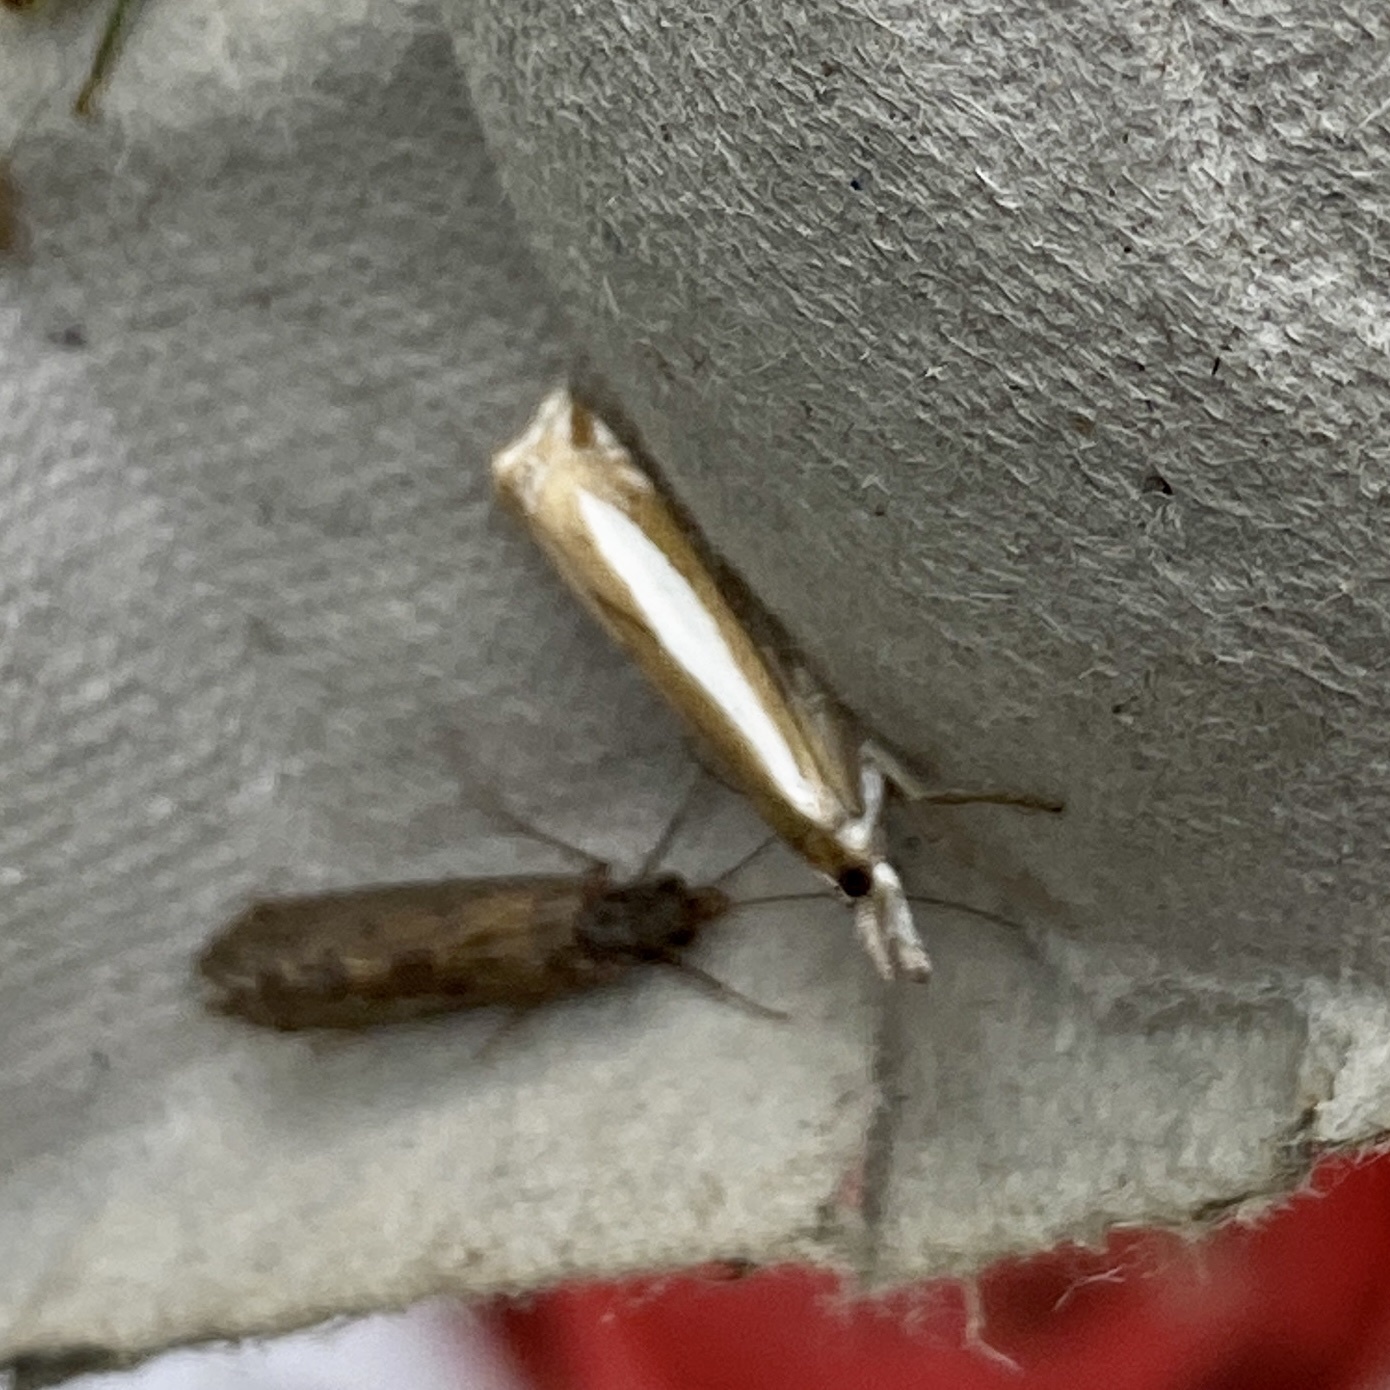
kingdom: Animalia
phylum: Arthropoda
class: Insecta
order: Lepidoptera
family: Crambidae
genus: Crambus
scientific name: Crambus praefectellus
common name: Common grass-veneer
